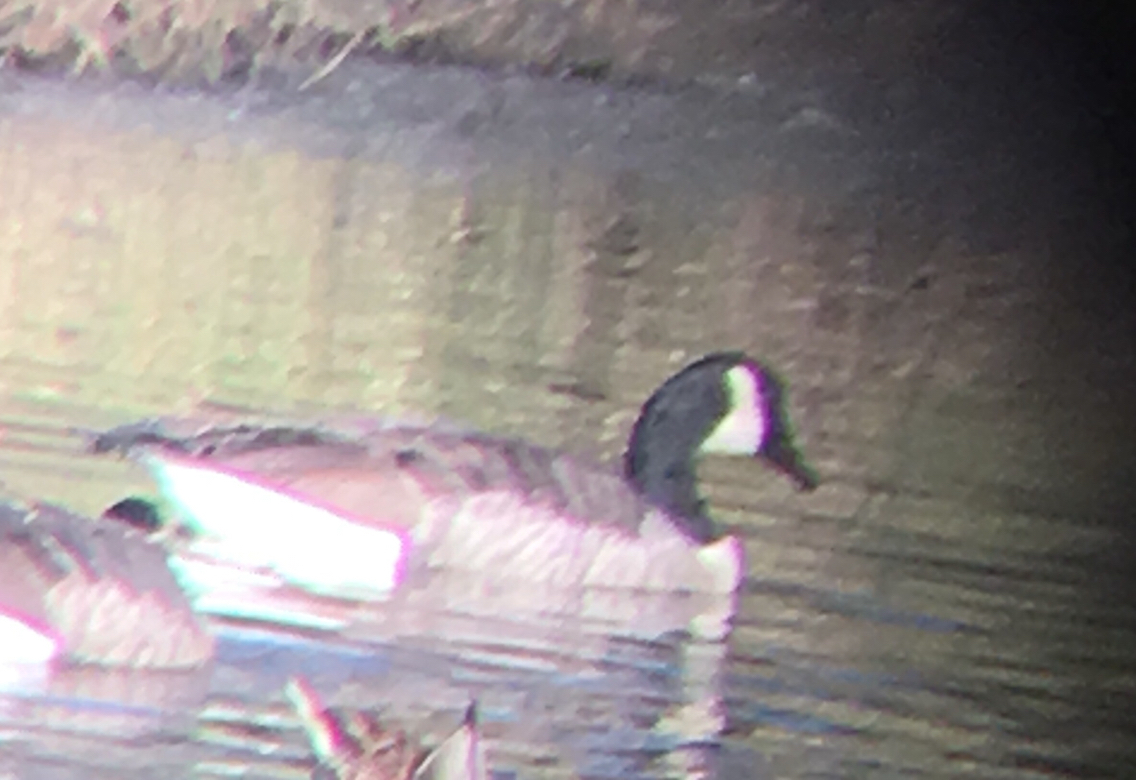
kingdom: Animalia
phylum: Chordata
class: Aves
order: Anseriformes
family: Anatidae
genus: Branta
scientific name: Branta canadensis
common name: Canada goose
